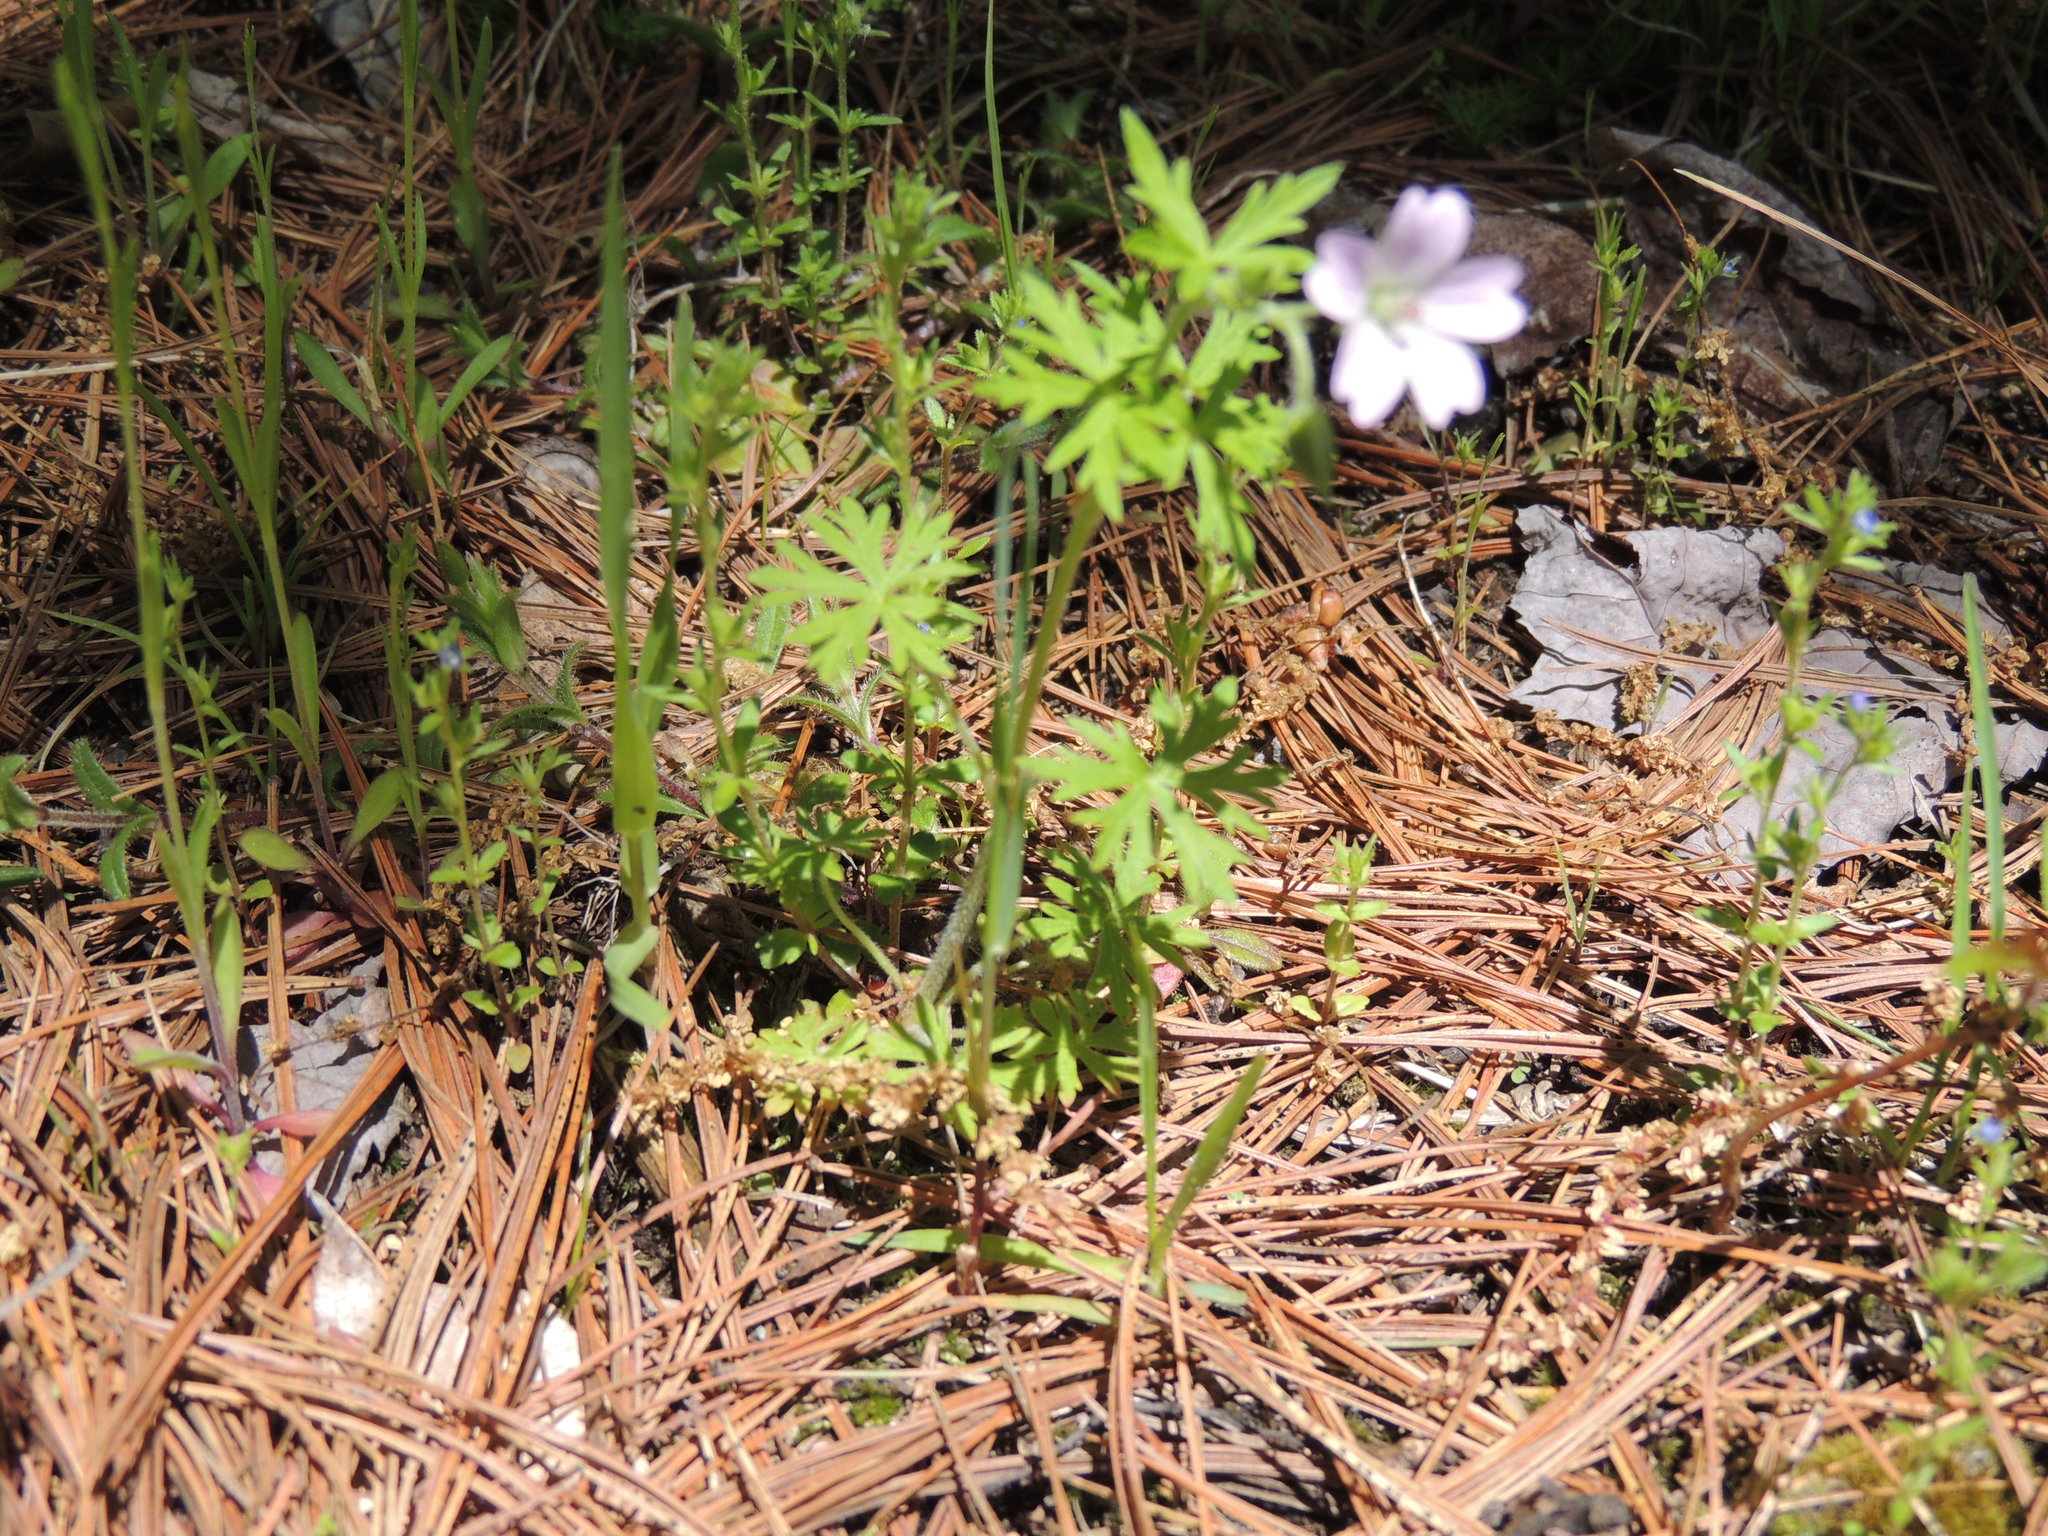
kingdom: Plantae
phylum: Tracheophyta
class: Magnoliopsida
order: Geraniales
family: Geraniaceae
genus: Geranium
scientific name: Geranium bicknellii
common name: Bicknell's cranesbill
